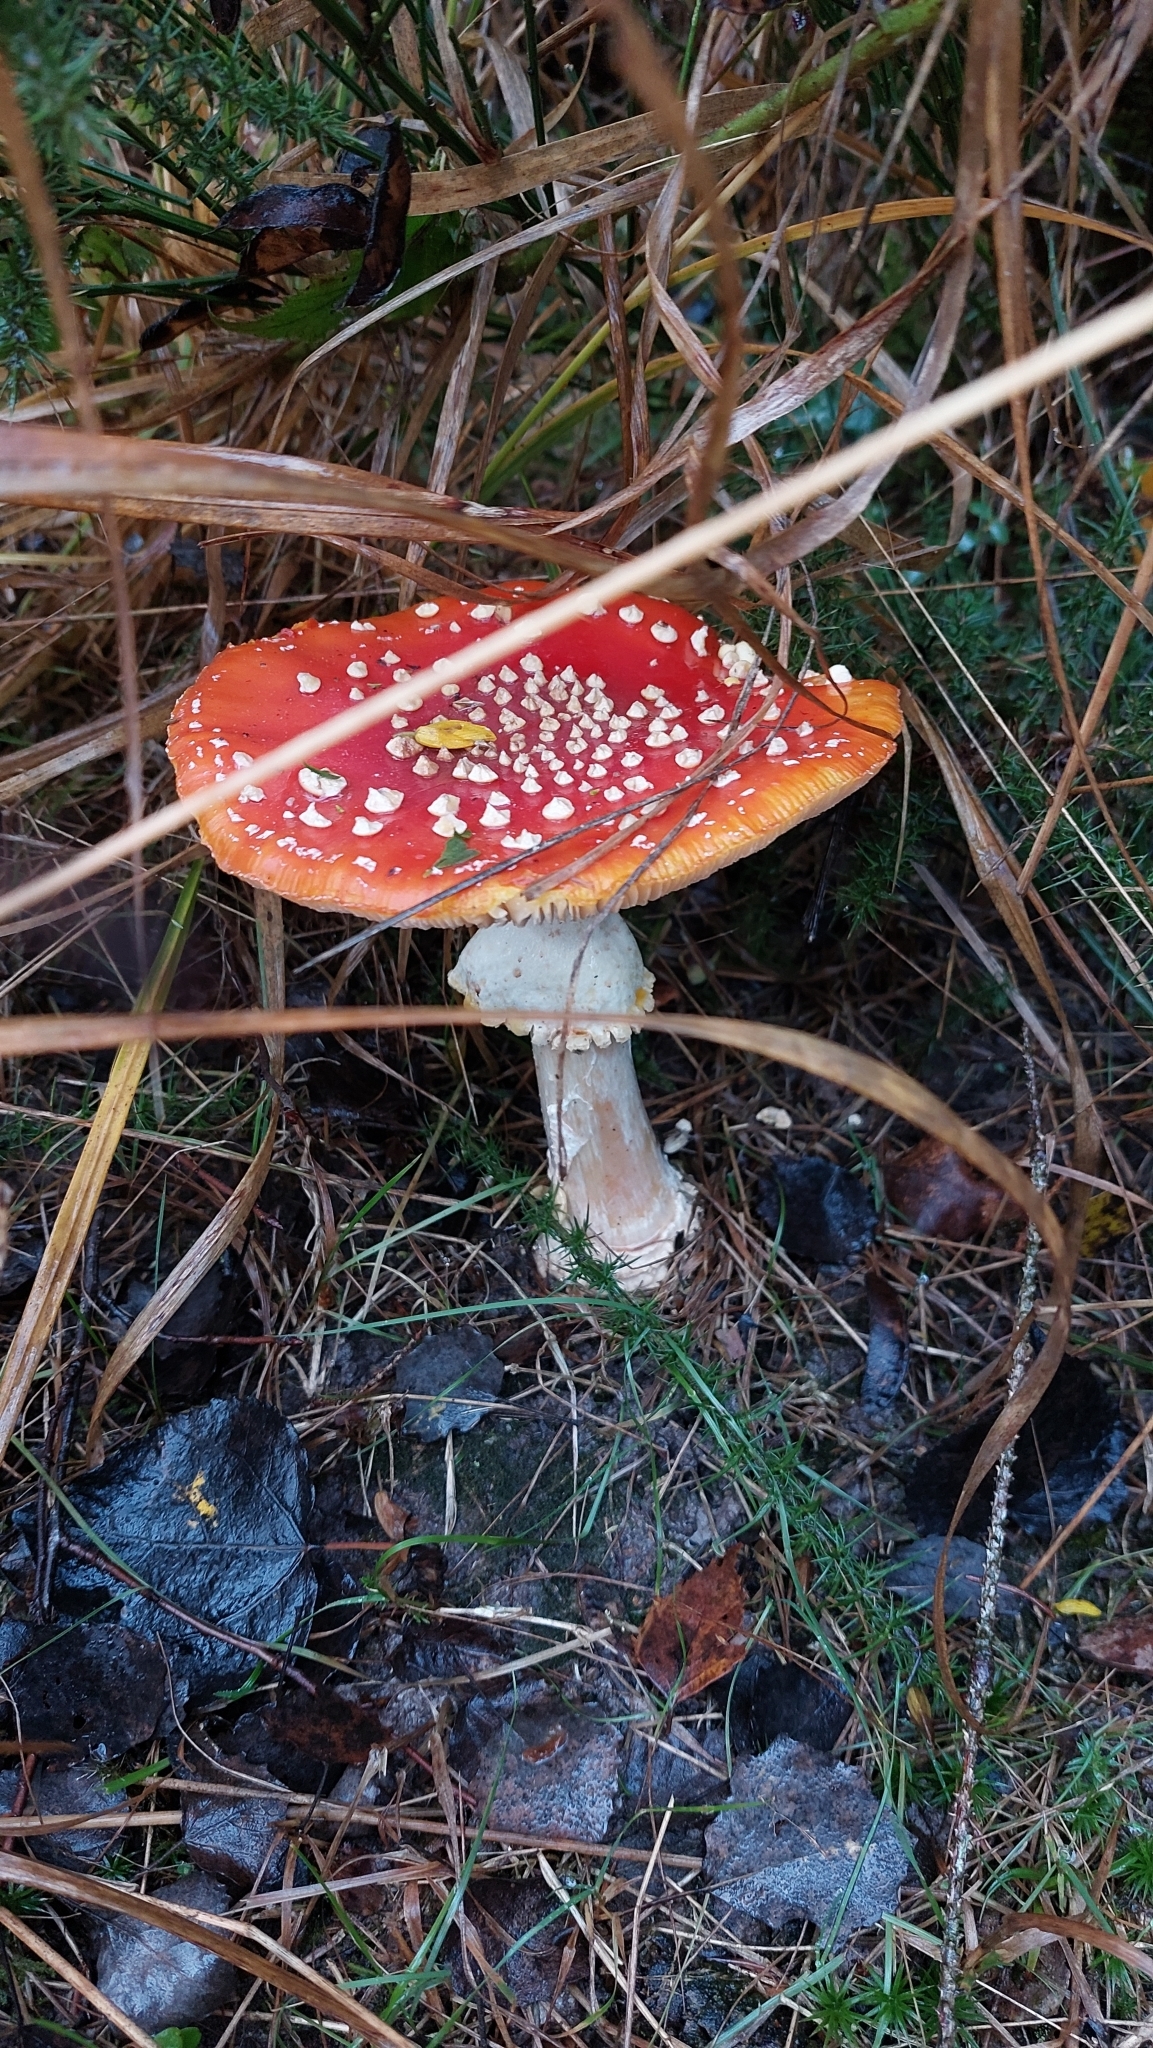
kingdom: Fungi
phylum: Basidiomycota
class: Agaricomycetes
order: Agaricales
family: Amanitaceae
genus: Amanita
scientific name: Amanita muscaria
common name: Fly agaric
